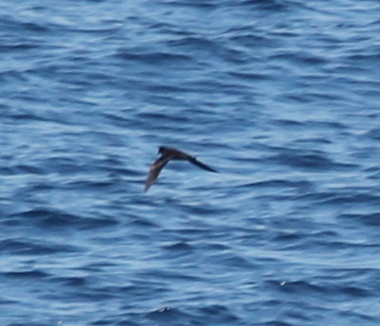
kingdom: Animalia
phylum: Chordata
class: Aves
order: Procellariiformes
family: Hydrobatidae
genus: Hydrobates
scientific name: Hydrobates melania
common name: Black storm petrel
